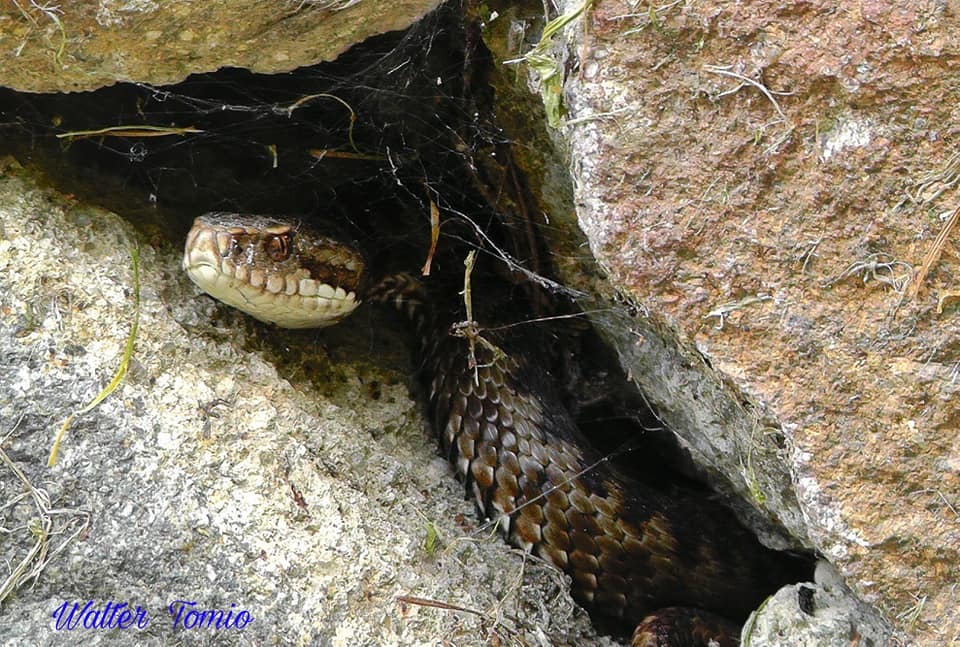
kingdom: Animalia
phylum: Chordata
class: Squamata
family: Viperidae
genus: Vipera
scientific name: Vipera berus
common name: Adder
